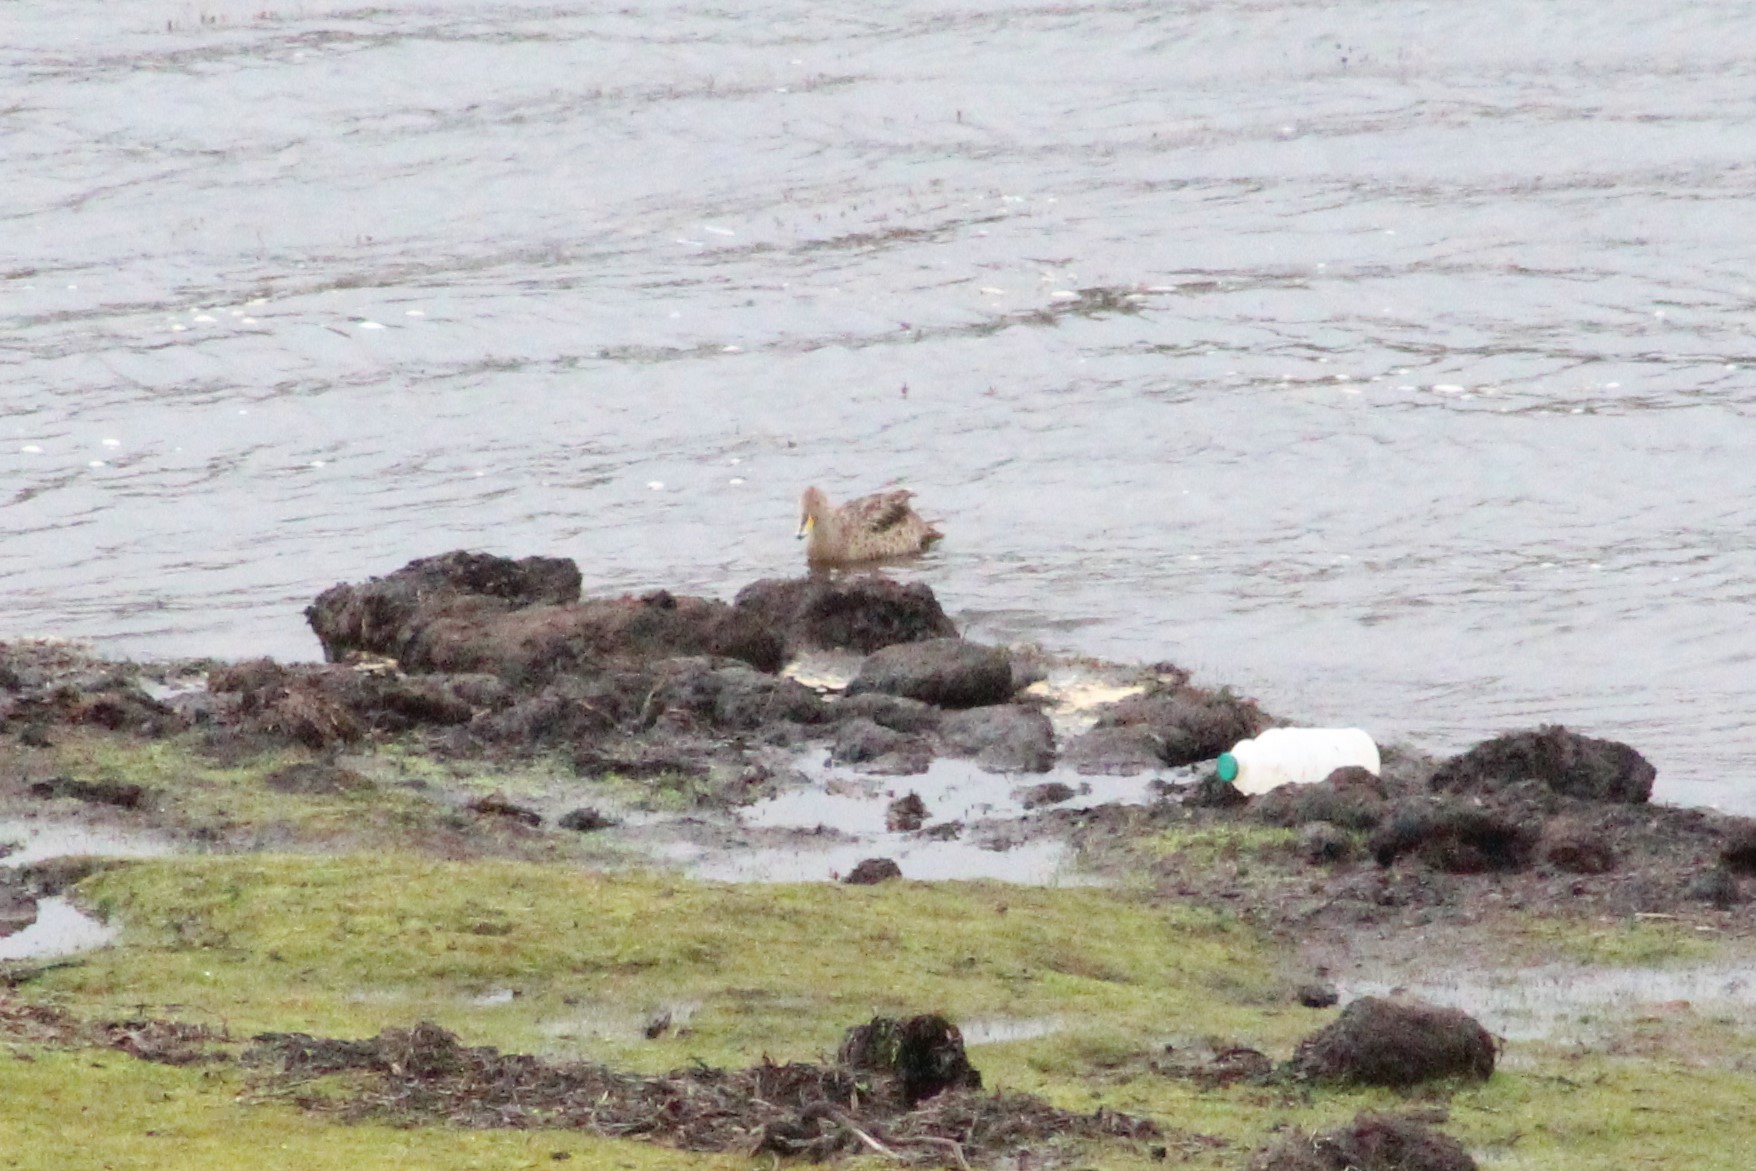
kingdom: Animalia
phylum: Chordata
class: Aves
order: Anseriformes
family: Anatidae
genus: Anas
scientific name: Anas georgica
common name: Yellow-billed pintail
